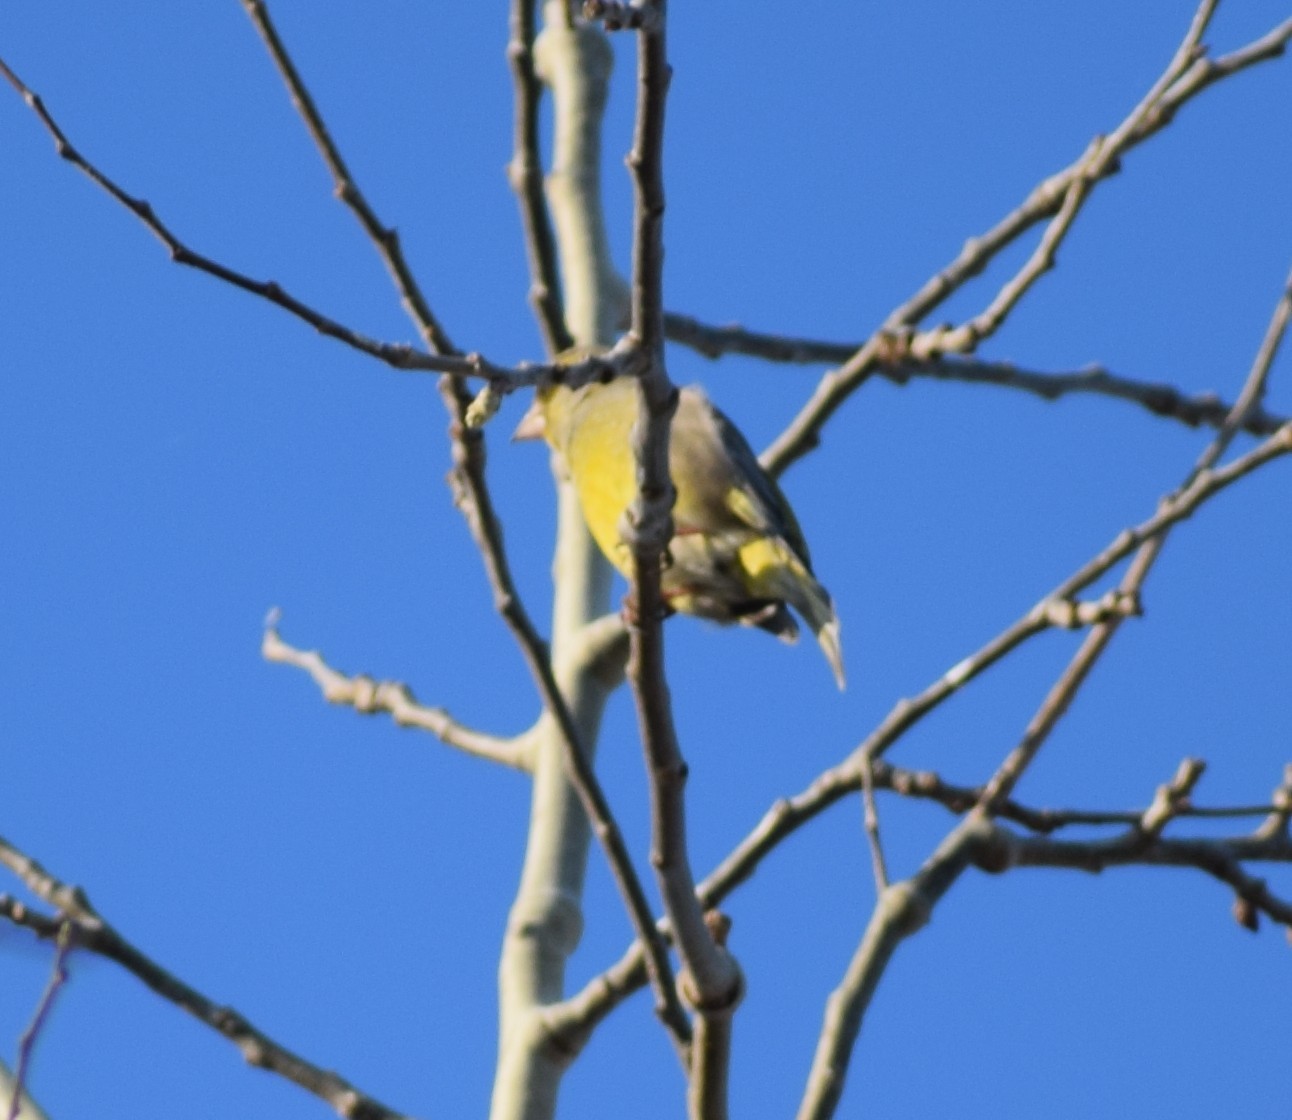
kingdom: Plantae
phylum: Tracheophyta
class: Liliopsida
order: Poales
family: Poaceae
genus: Chloris
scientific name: Chloris chloris
